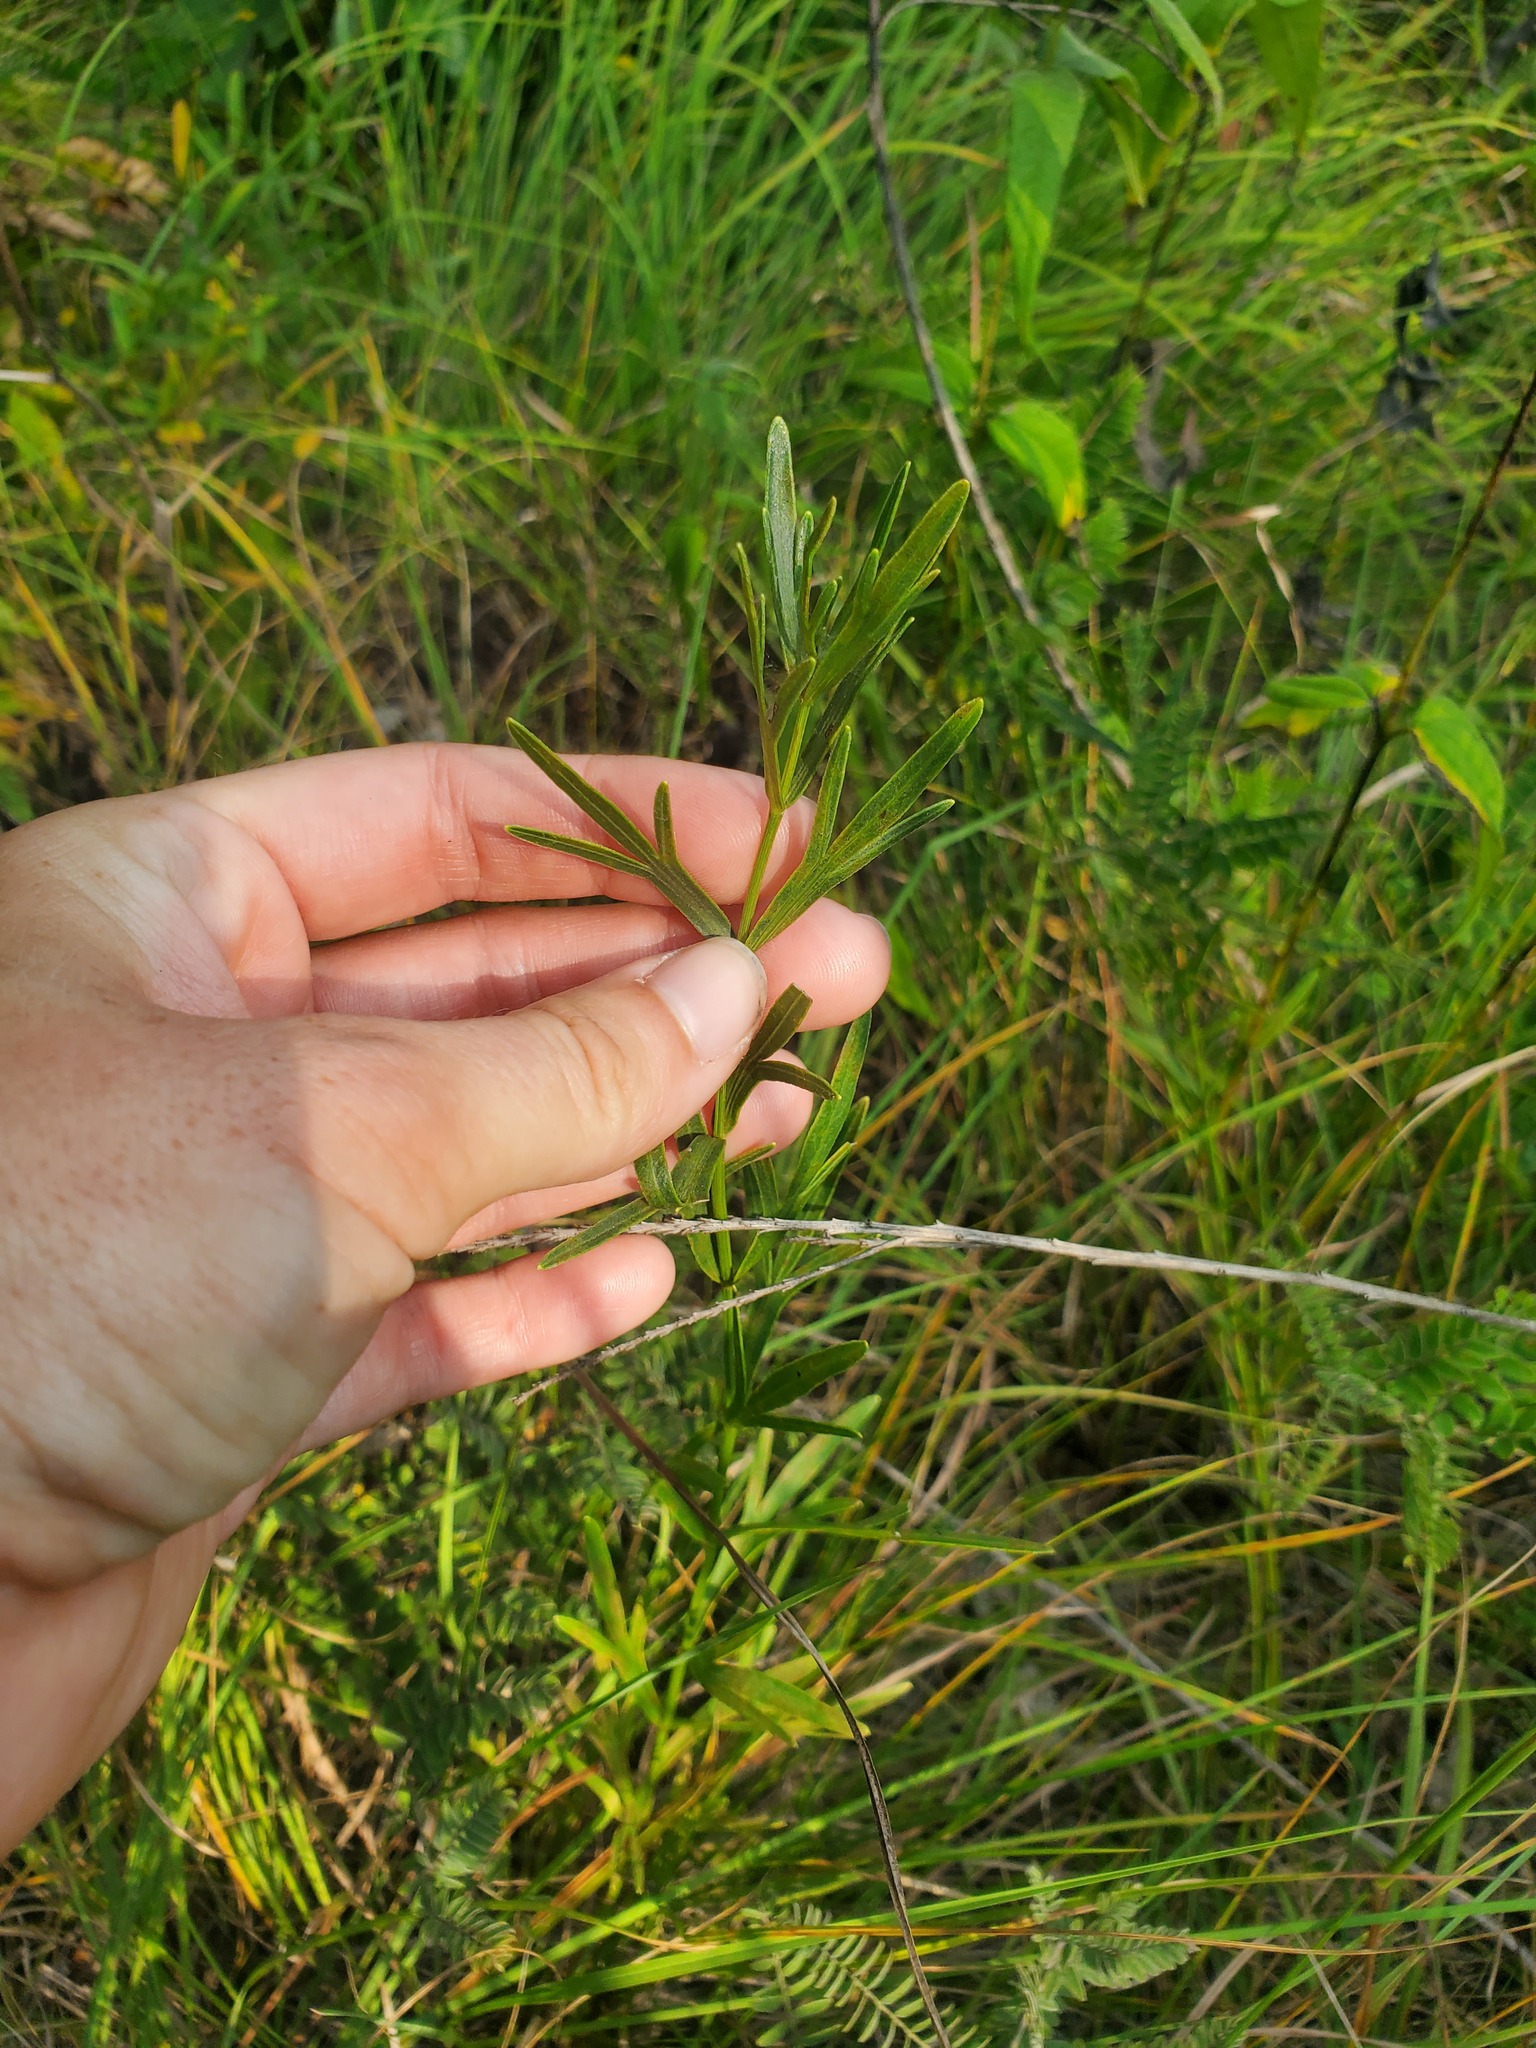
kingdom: Plantae
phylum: Tracheophyta
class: Magnoliopsida
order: Asterales
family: Asteraceae
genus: Coreopsis
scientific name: Coreopsis palmata
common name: Prairie coreopsis
